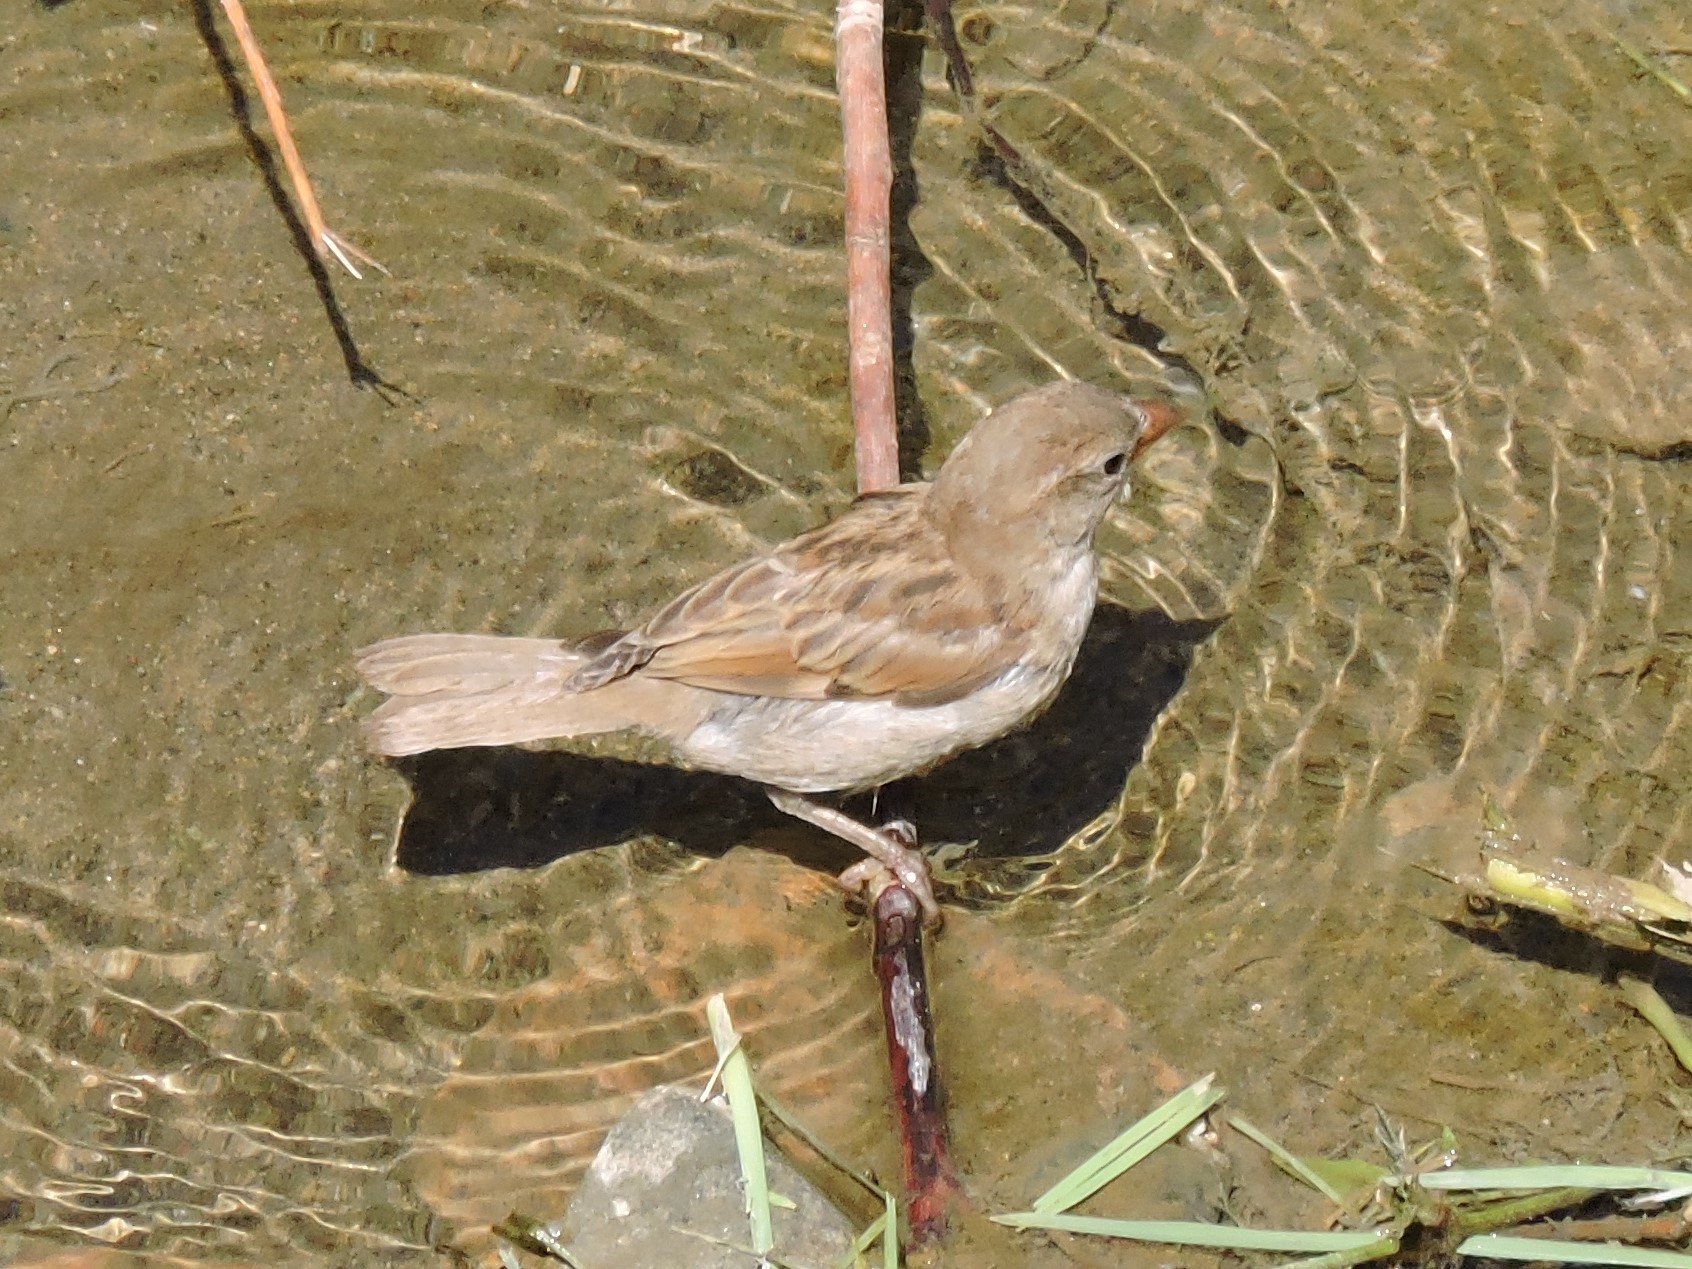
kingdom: Animalia
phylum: Chordata
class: Aves
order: Passeriformes
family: Passeridae
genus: Passer
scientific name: Passer domesticus
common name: House sparrow
